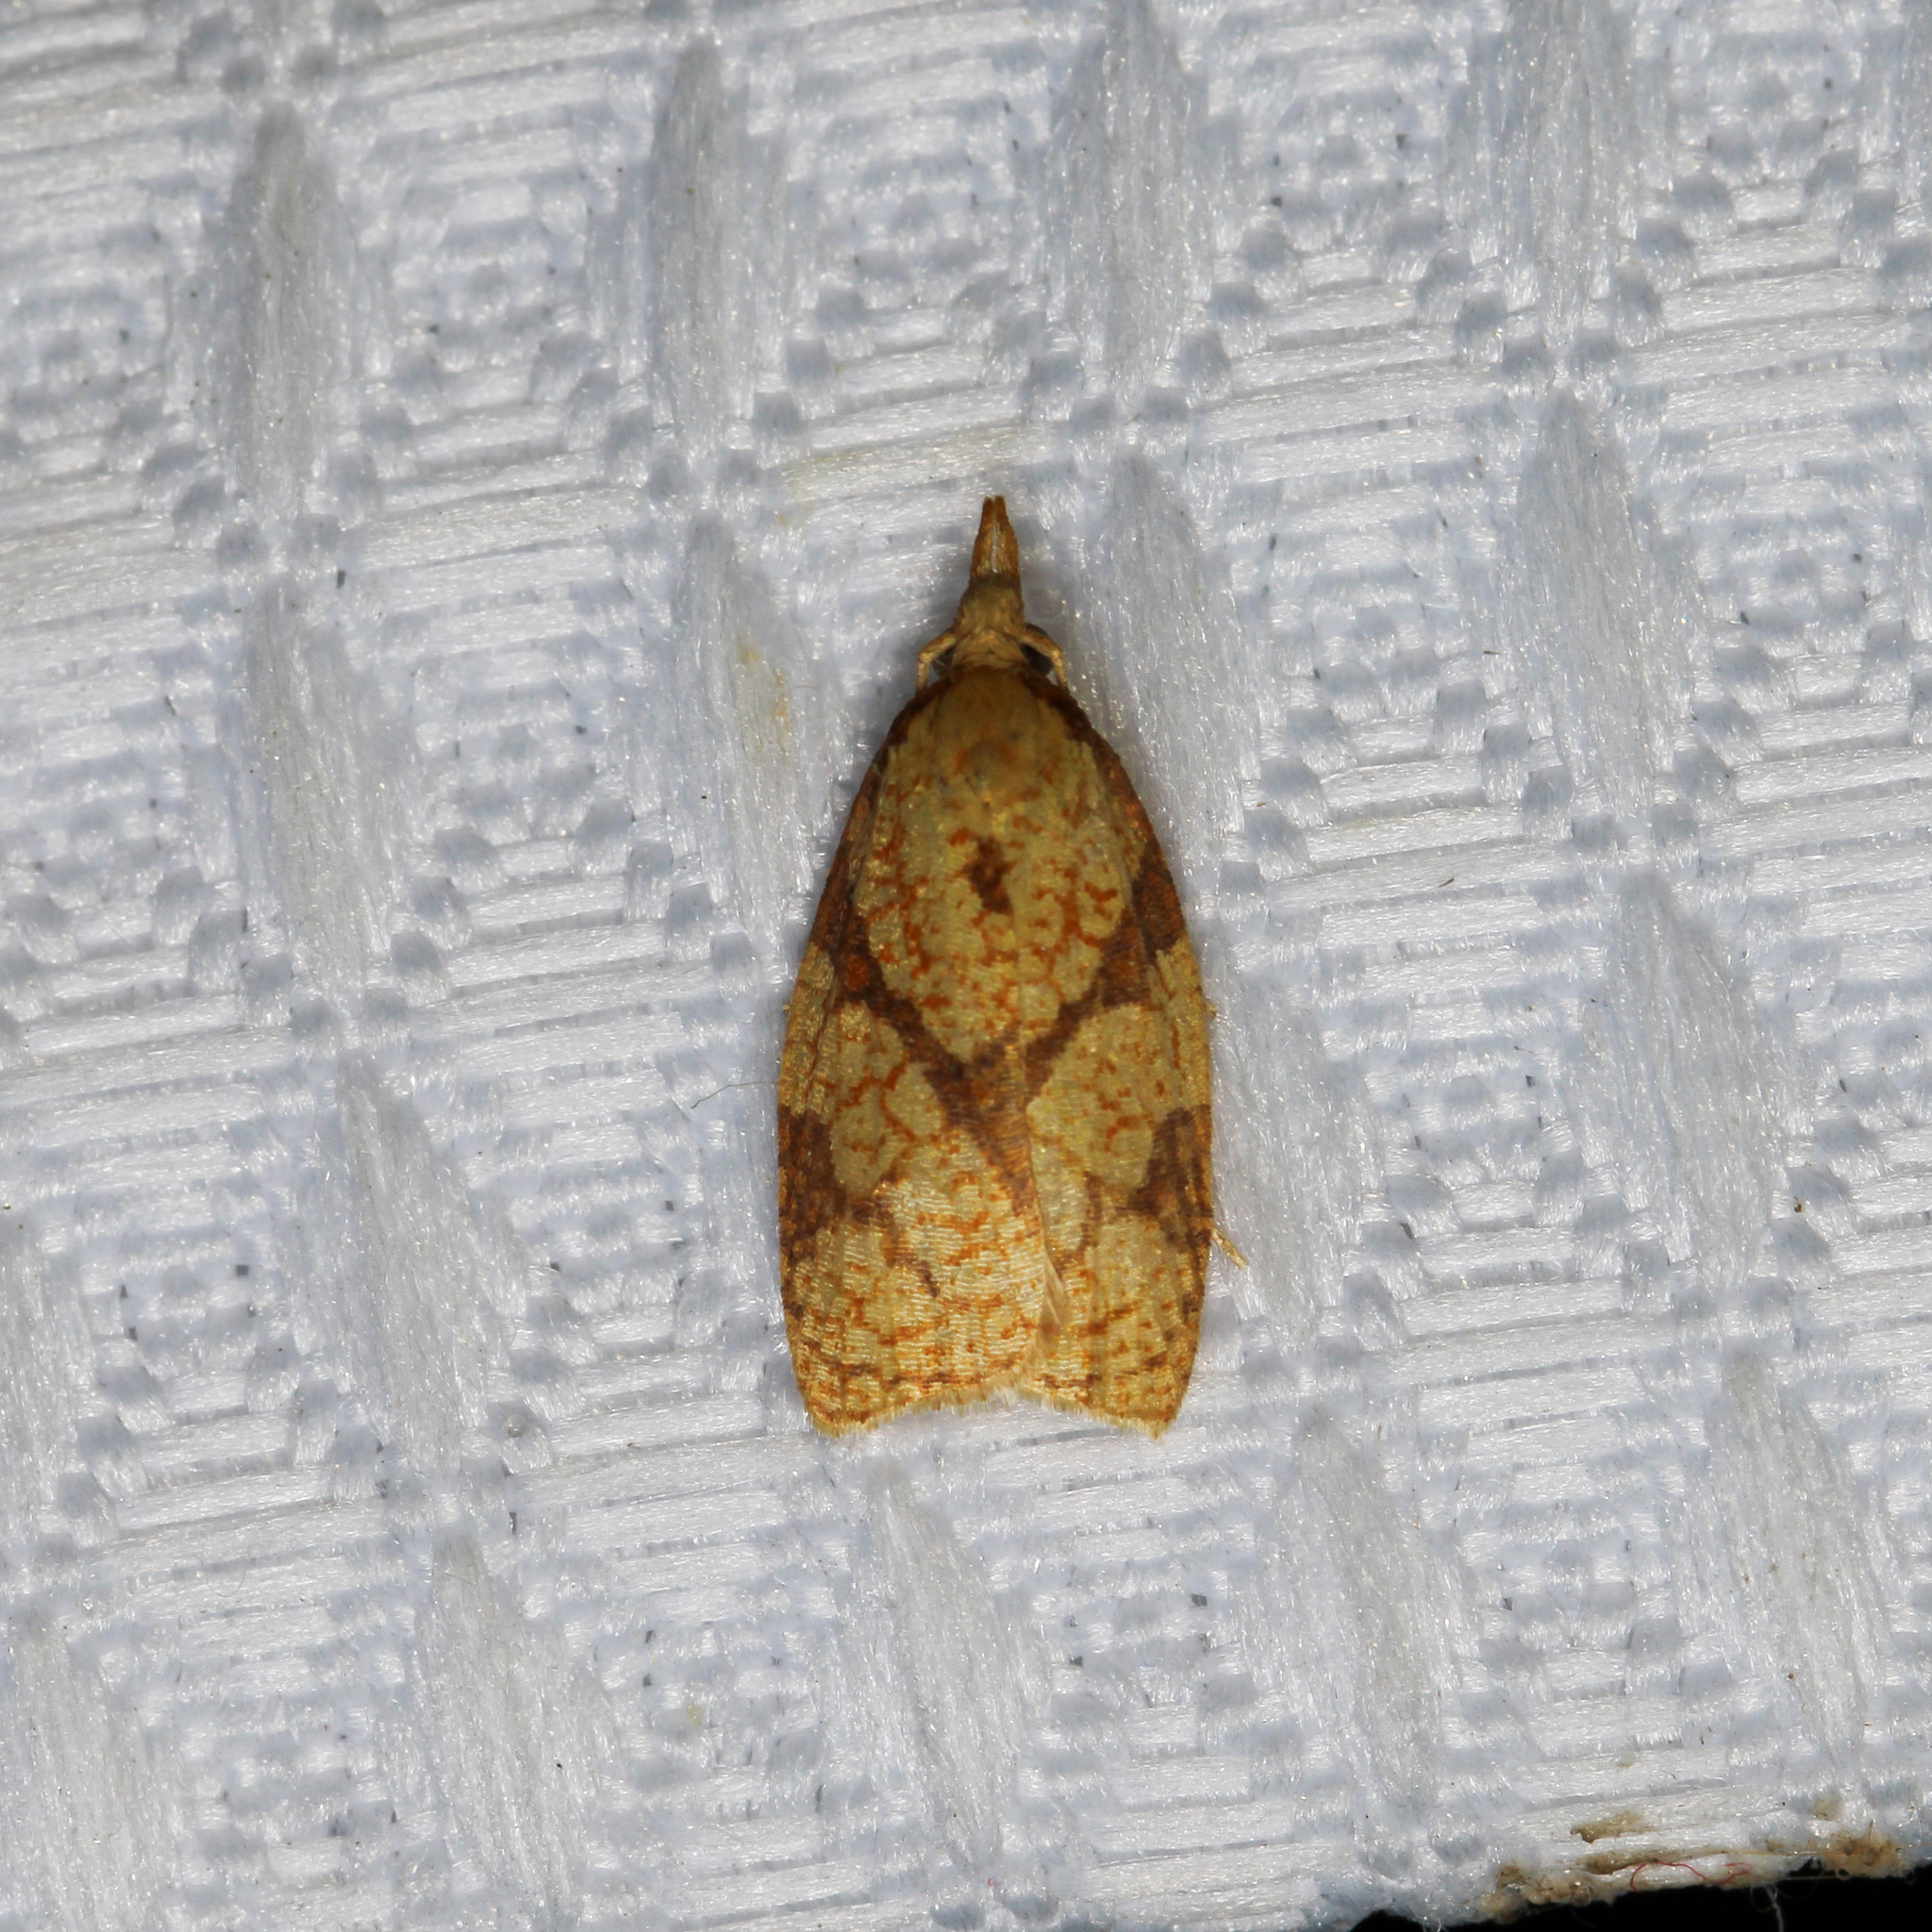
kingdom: Animalia
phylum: Arthropoda
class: Insecta
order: Lepidoptera
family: Tortricidae
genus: Cenopis
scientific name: Cenopis reticulatana
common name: Reticulated fruitworm moth
